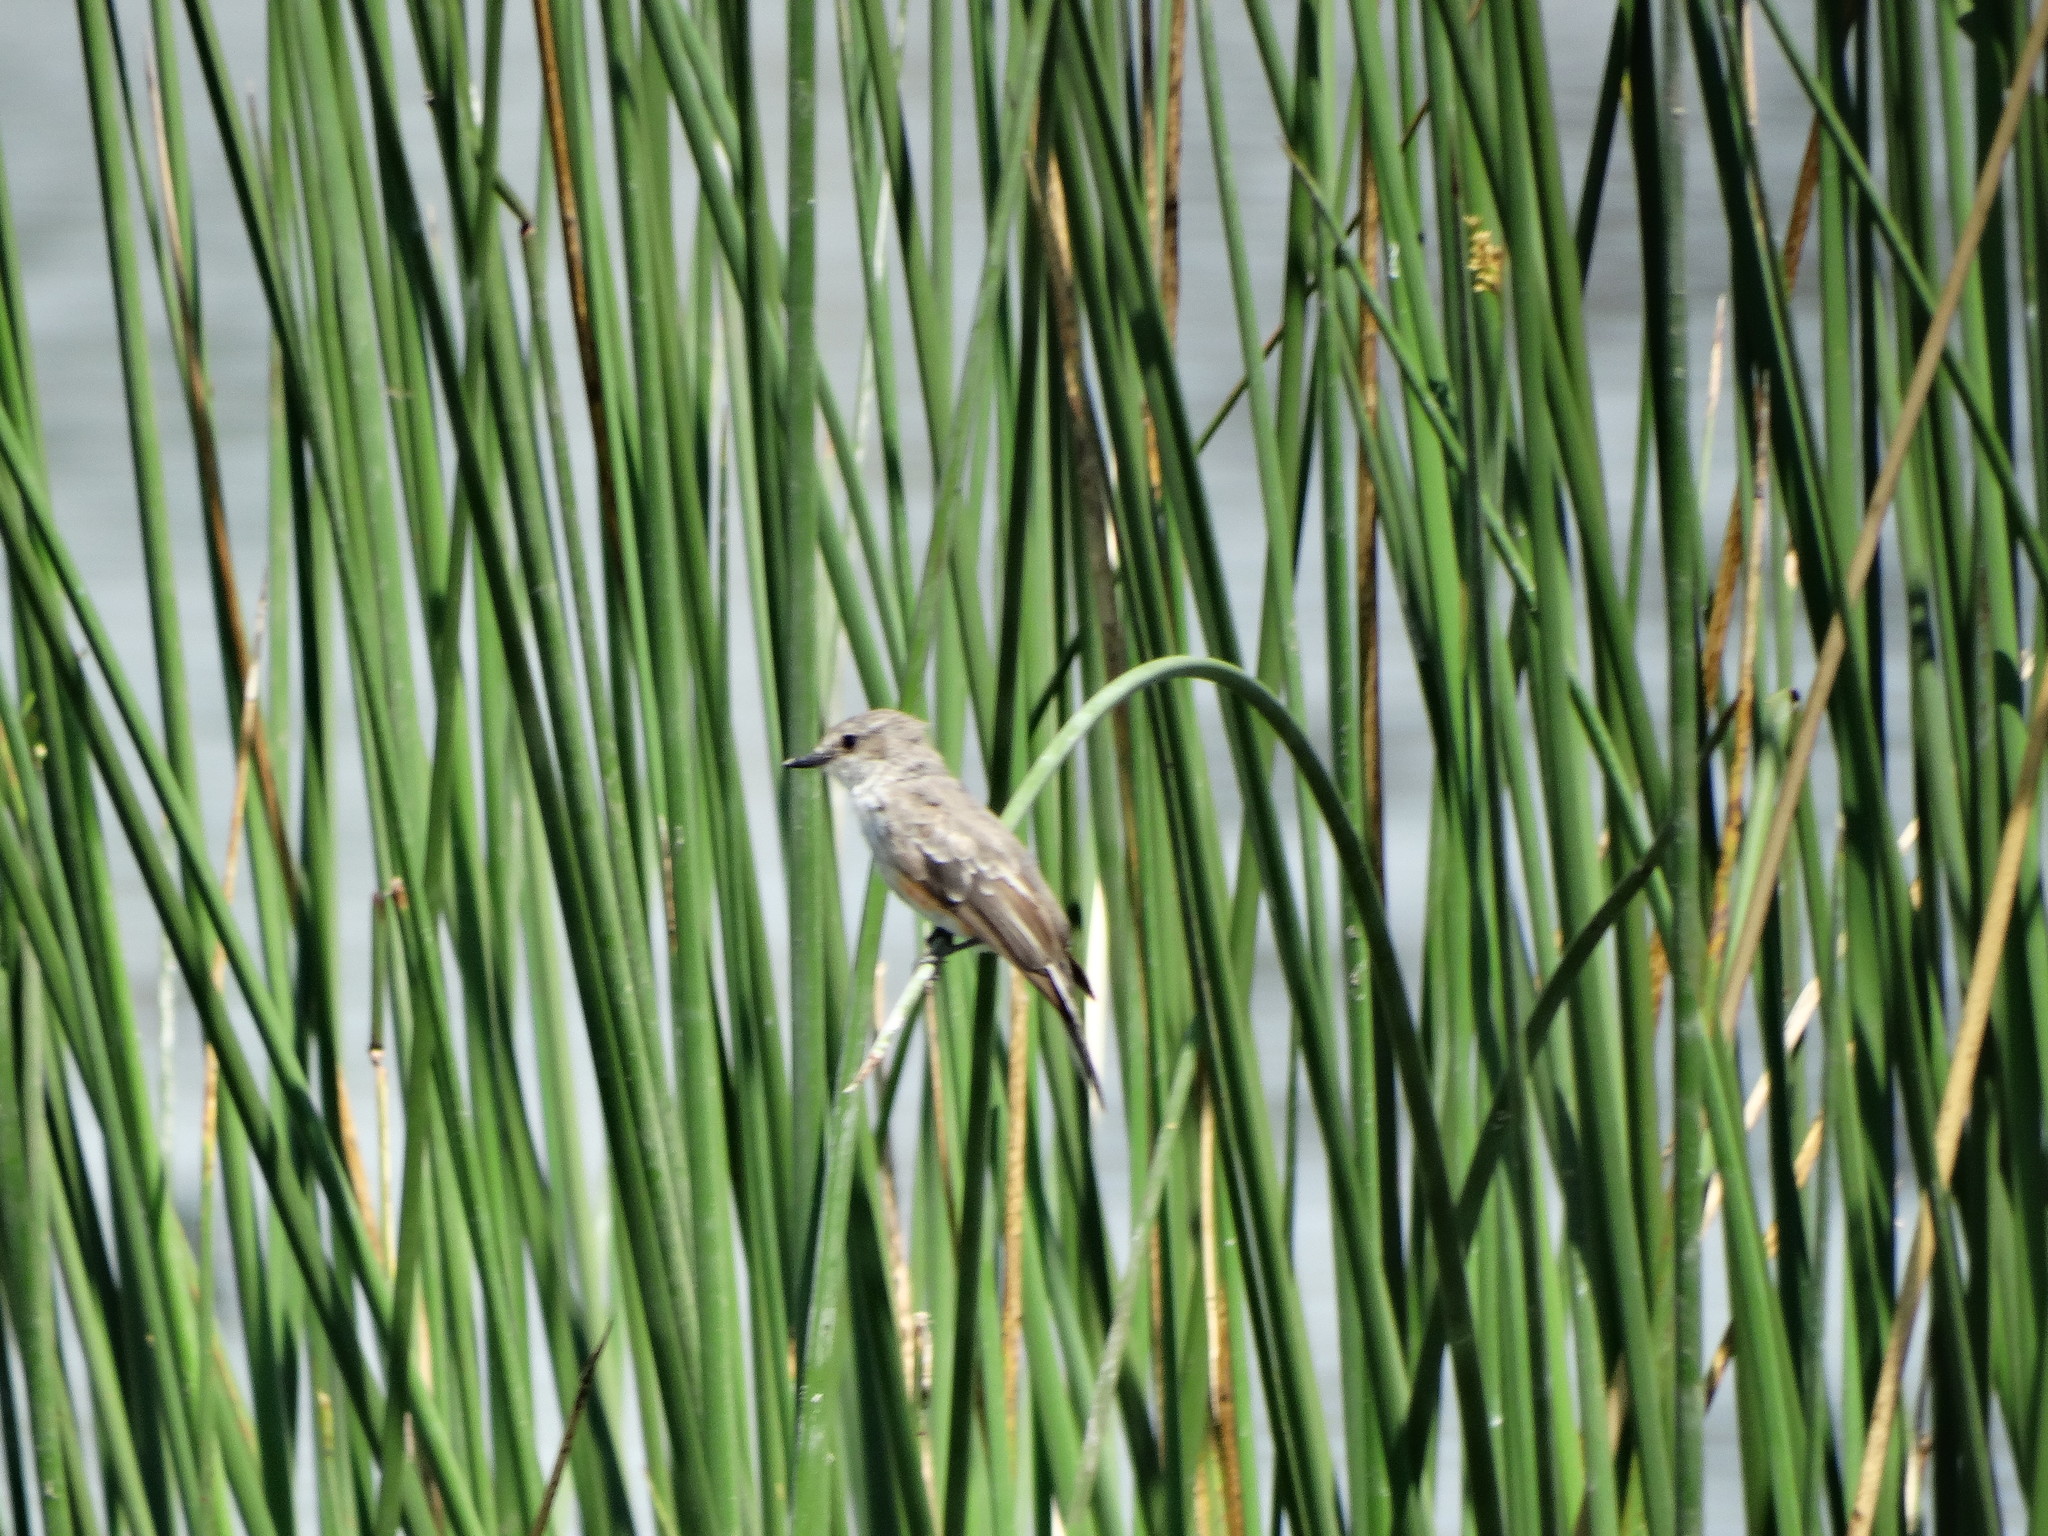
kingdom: Animalia
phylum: Chordata
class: Aves
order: Passeriformes
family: Tyrannidae
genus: Pyrocephalus
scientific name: Pyrocephalus rubinus
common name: Vermilion flycatcher
